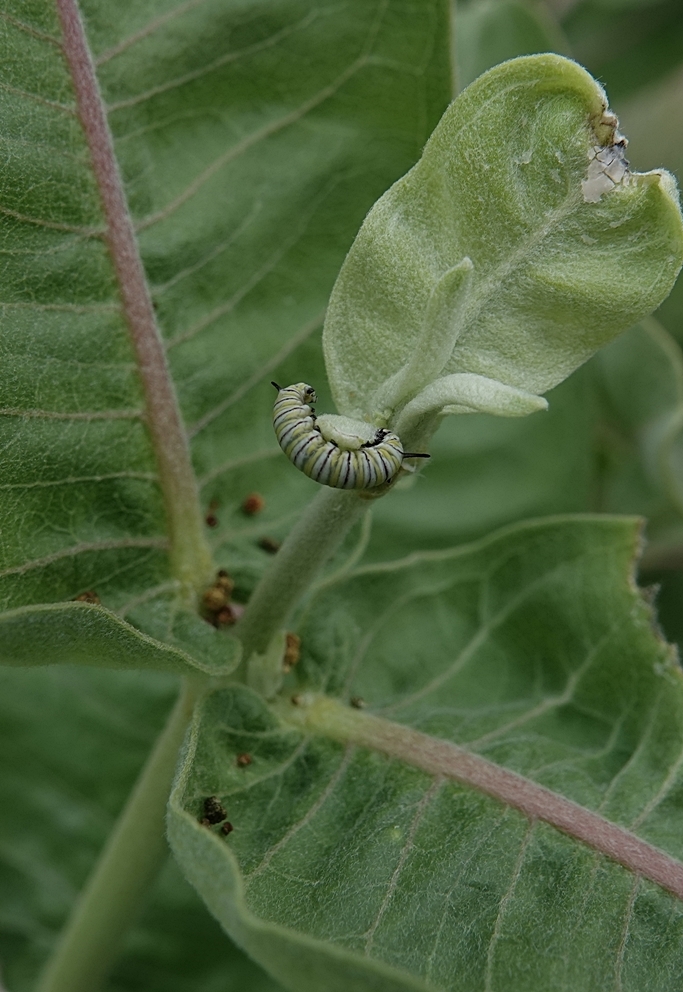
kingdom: Animalia
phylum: Arthropoda
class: Insecta
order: Lepidoptera
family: Nymphalidae
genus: Danaus
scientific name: Danaus plexippus
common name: Monarch
